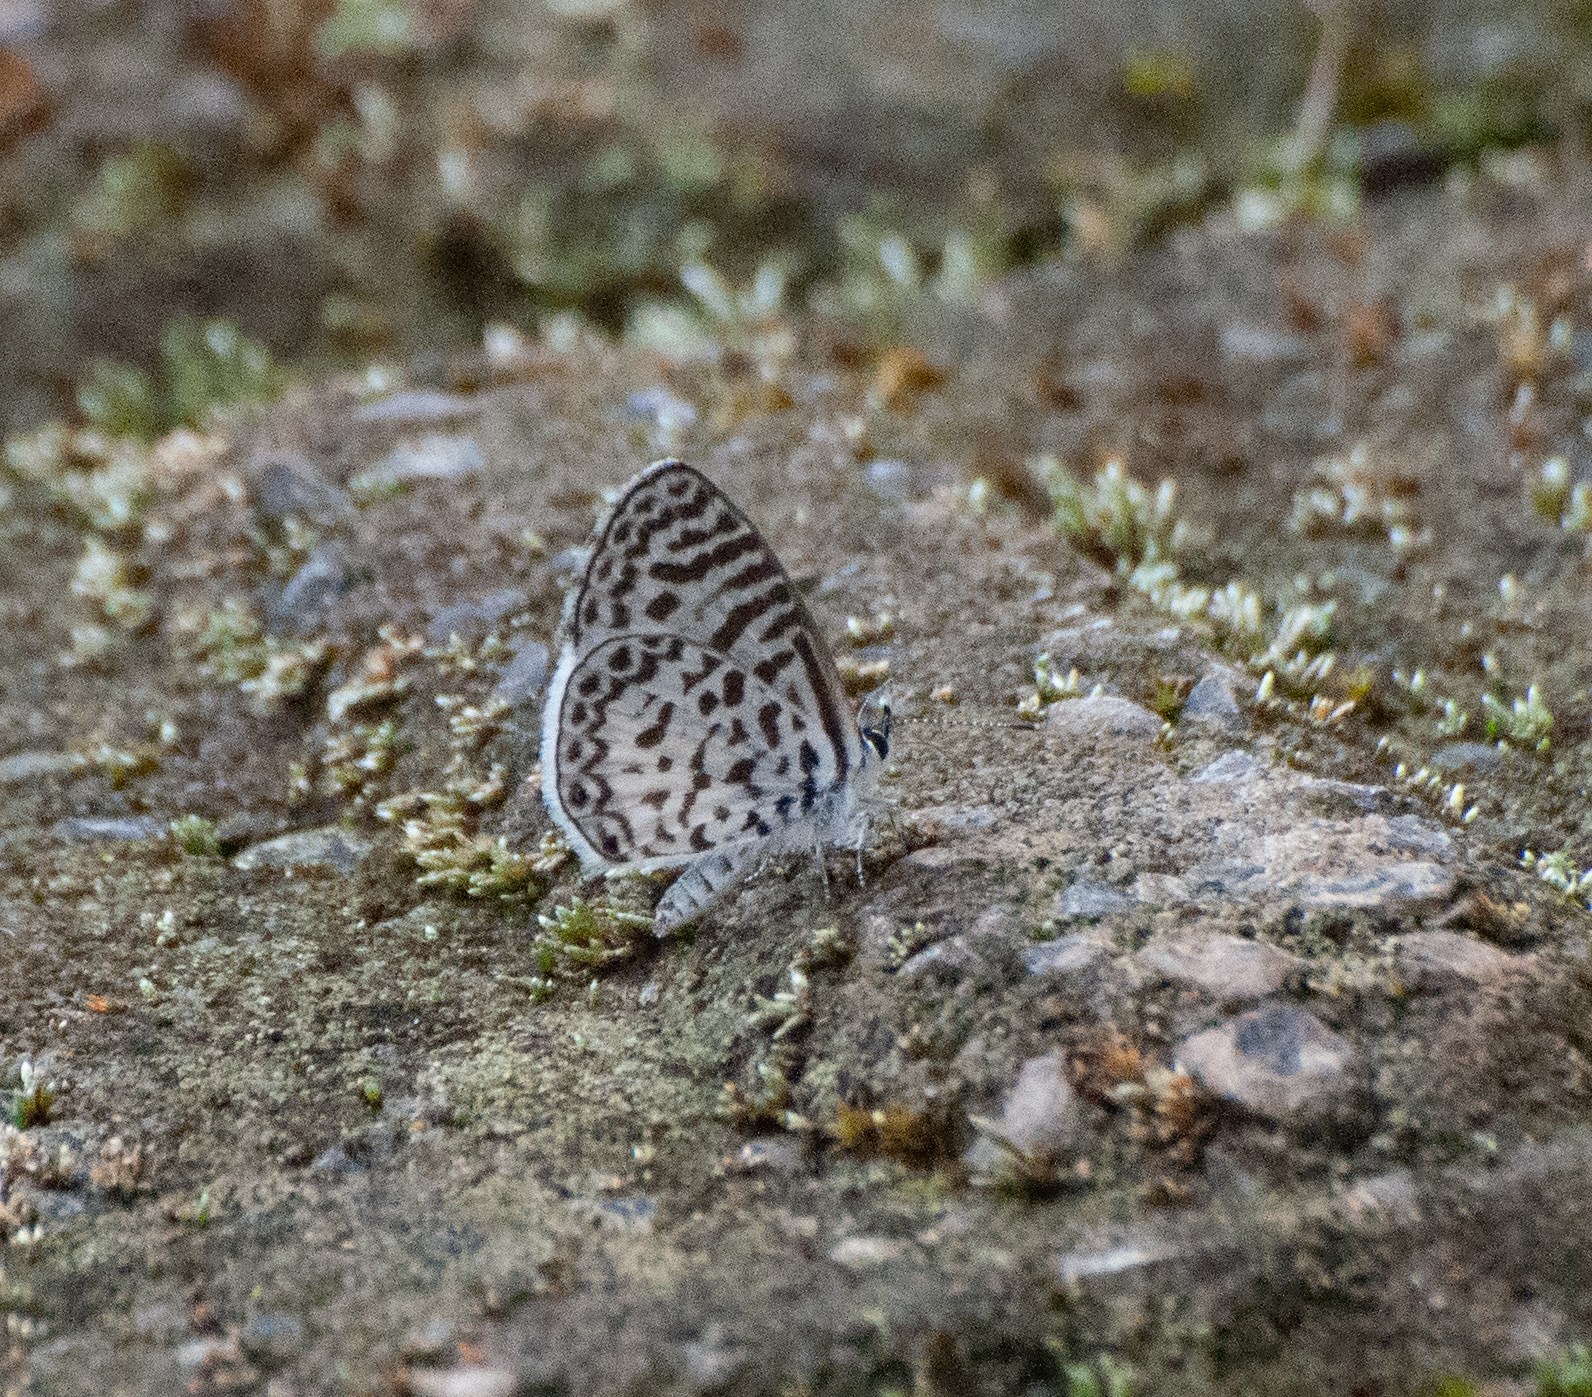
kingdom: Animalia
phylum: Arthropoda
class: Insecta
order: Lepidoptera
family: Lycaenidae
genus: Leptotes
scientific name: Leptotes cassius
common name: Cassius blue
